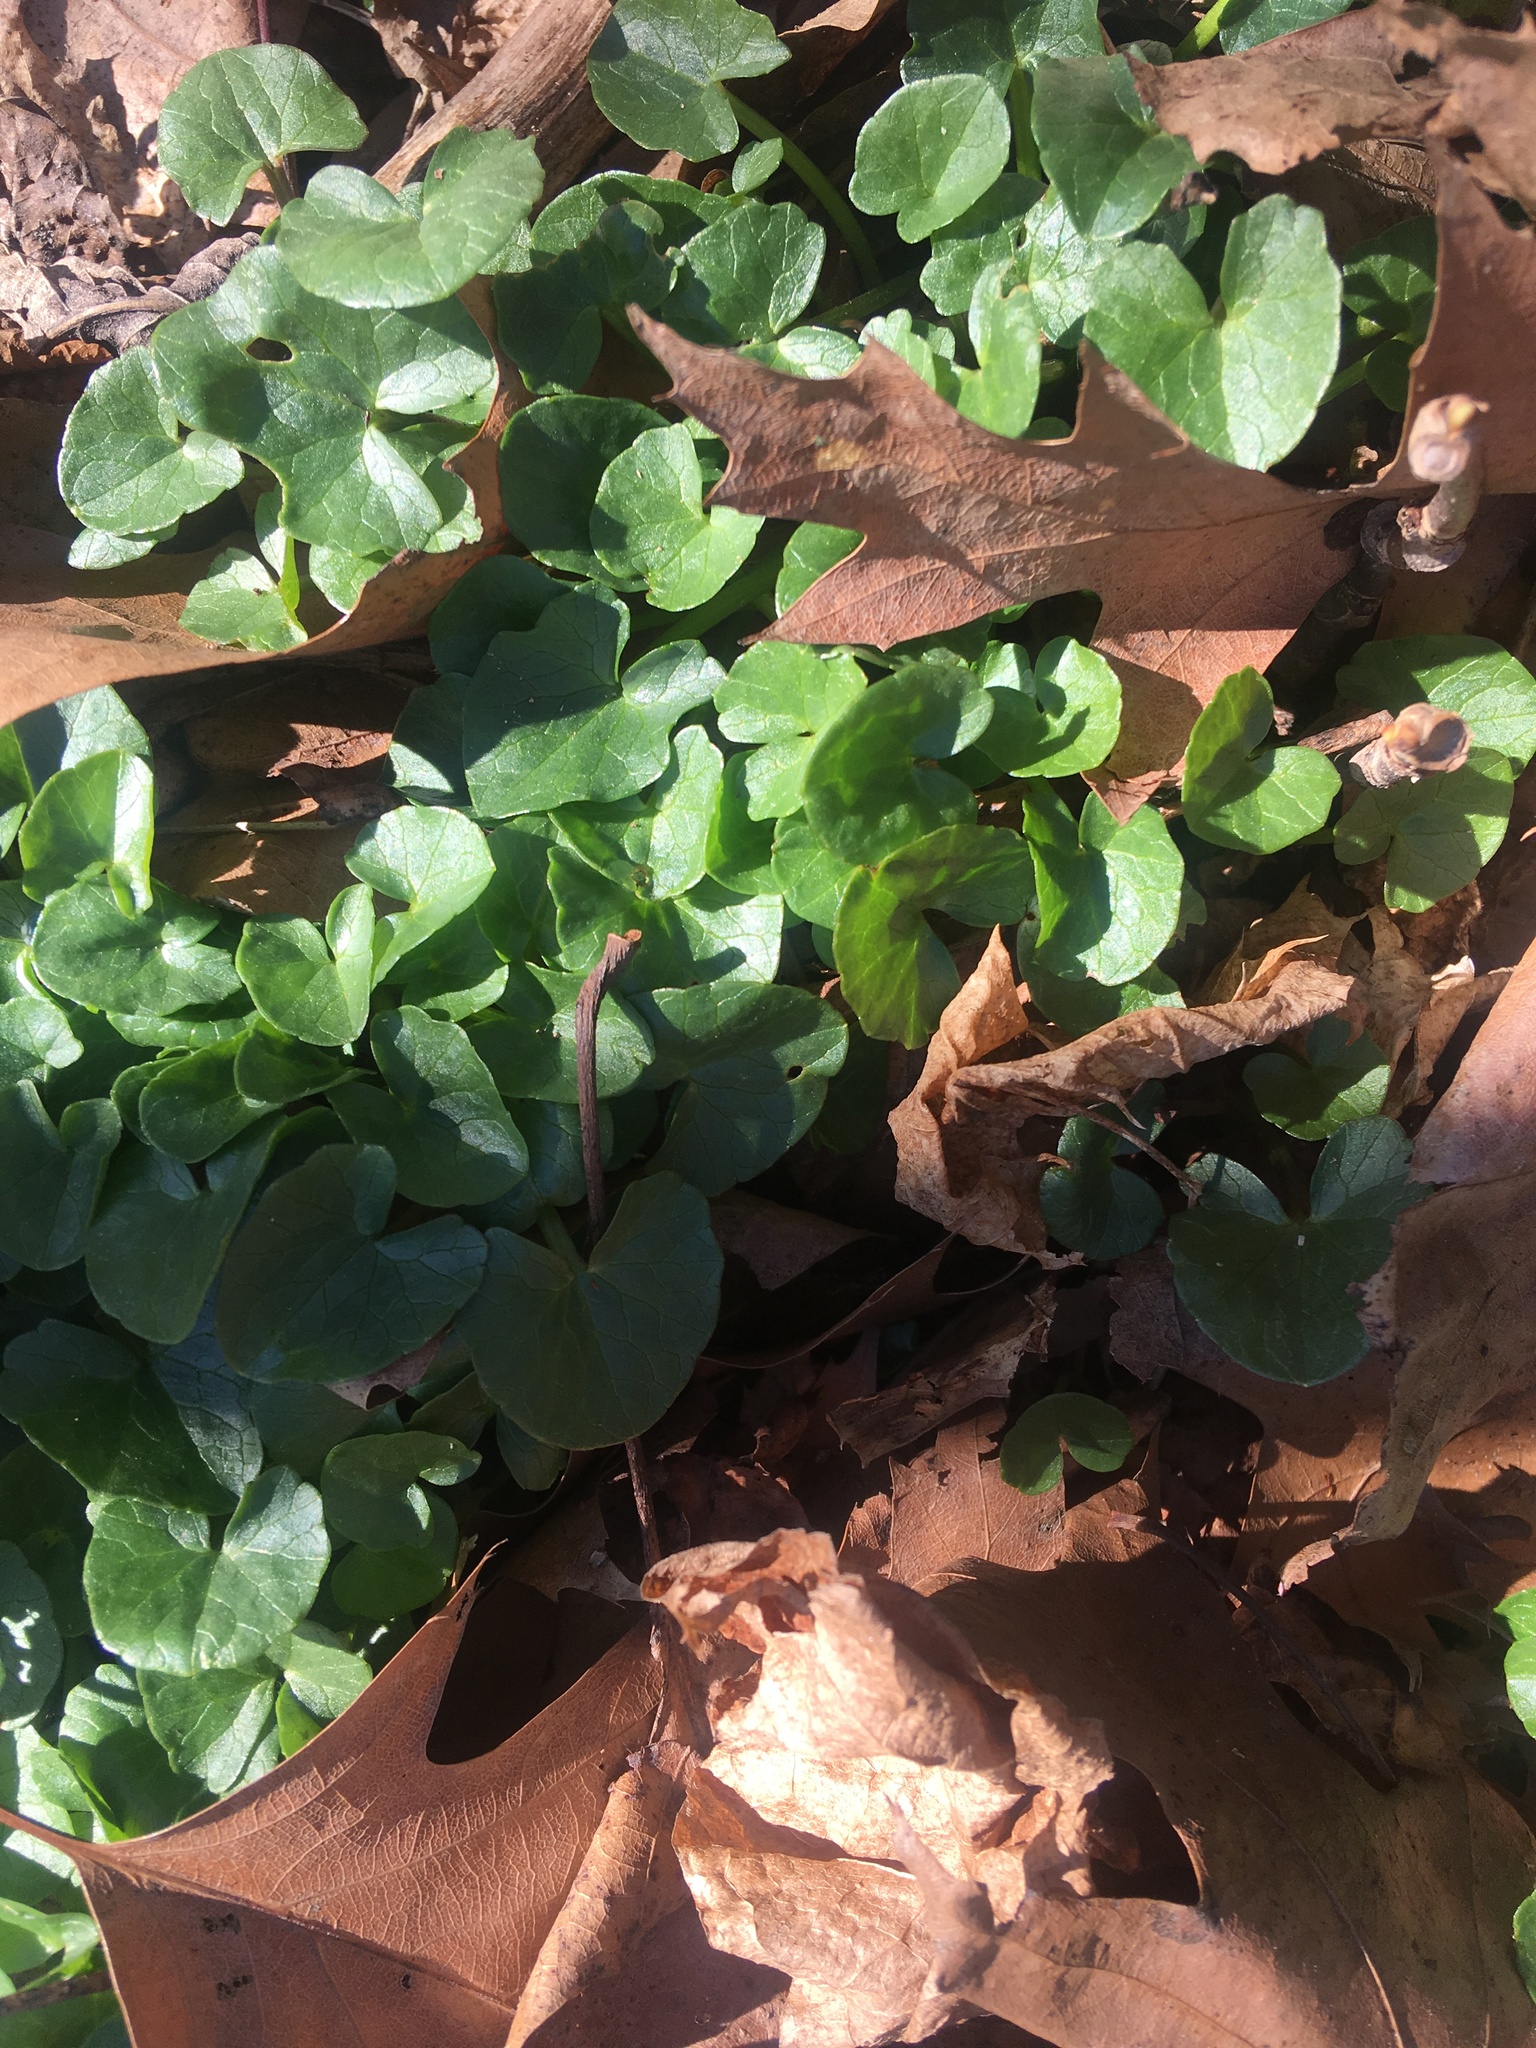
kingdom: Plantae
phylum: Tracheophyta
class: Magnoliopsida
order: Ranunculales
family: Ranunculaceae
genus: Ficaria
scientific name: Ficaria verna
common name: Lesser celandine
